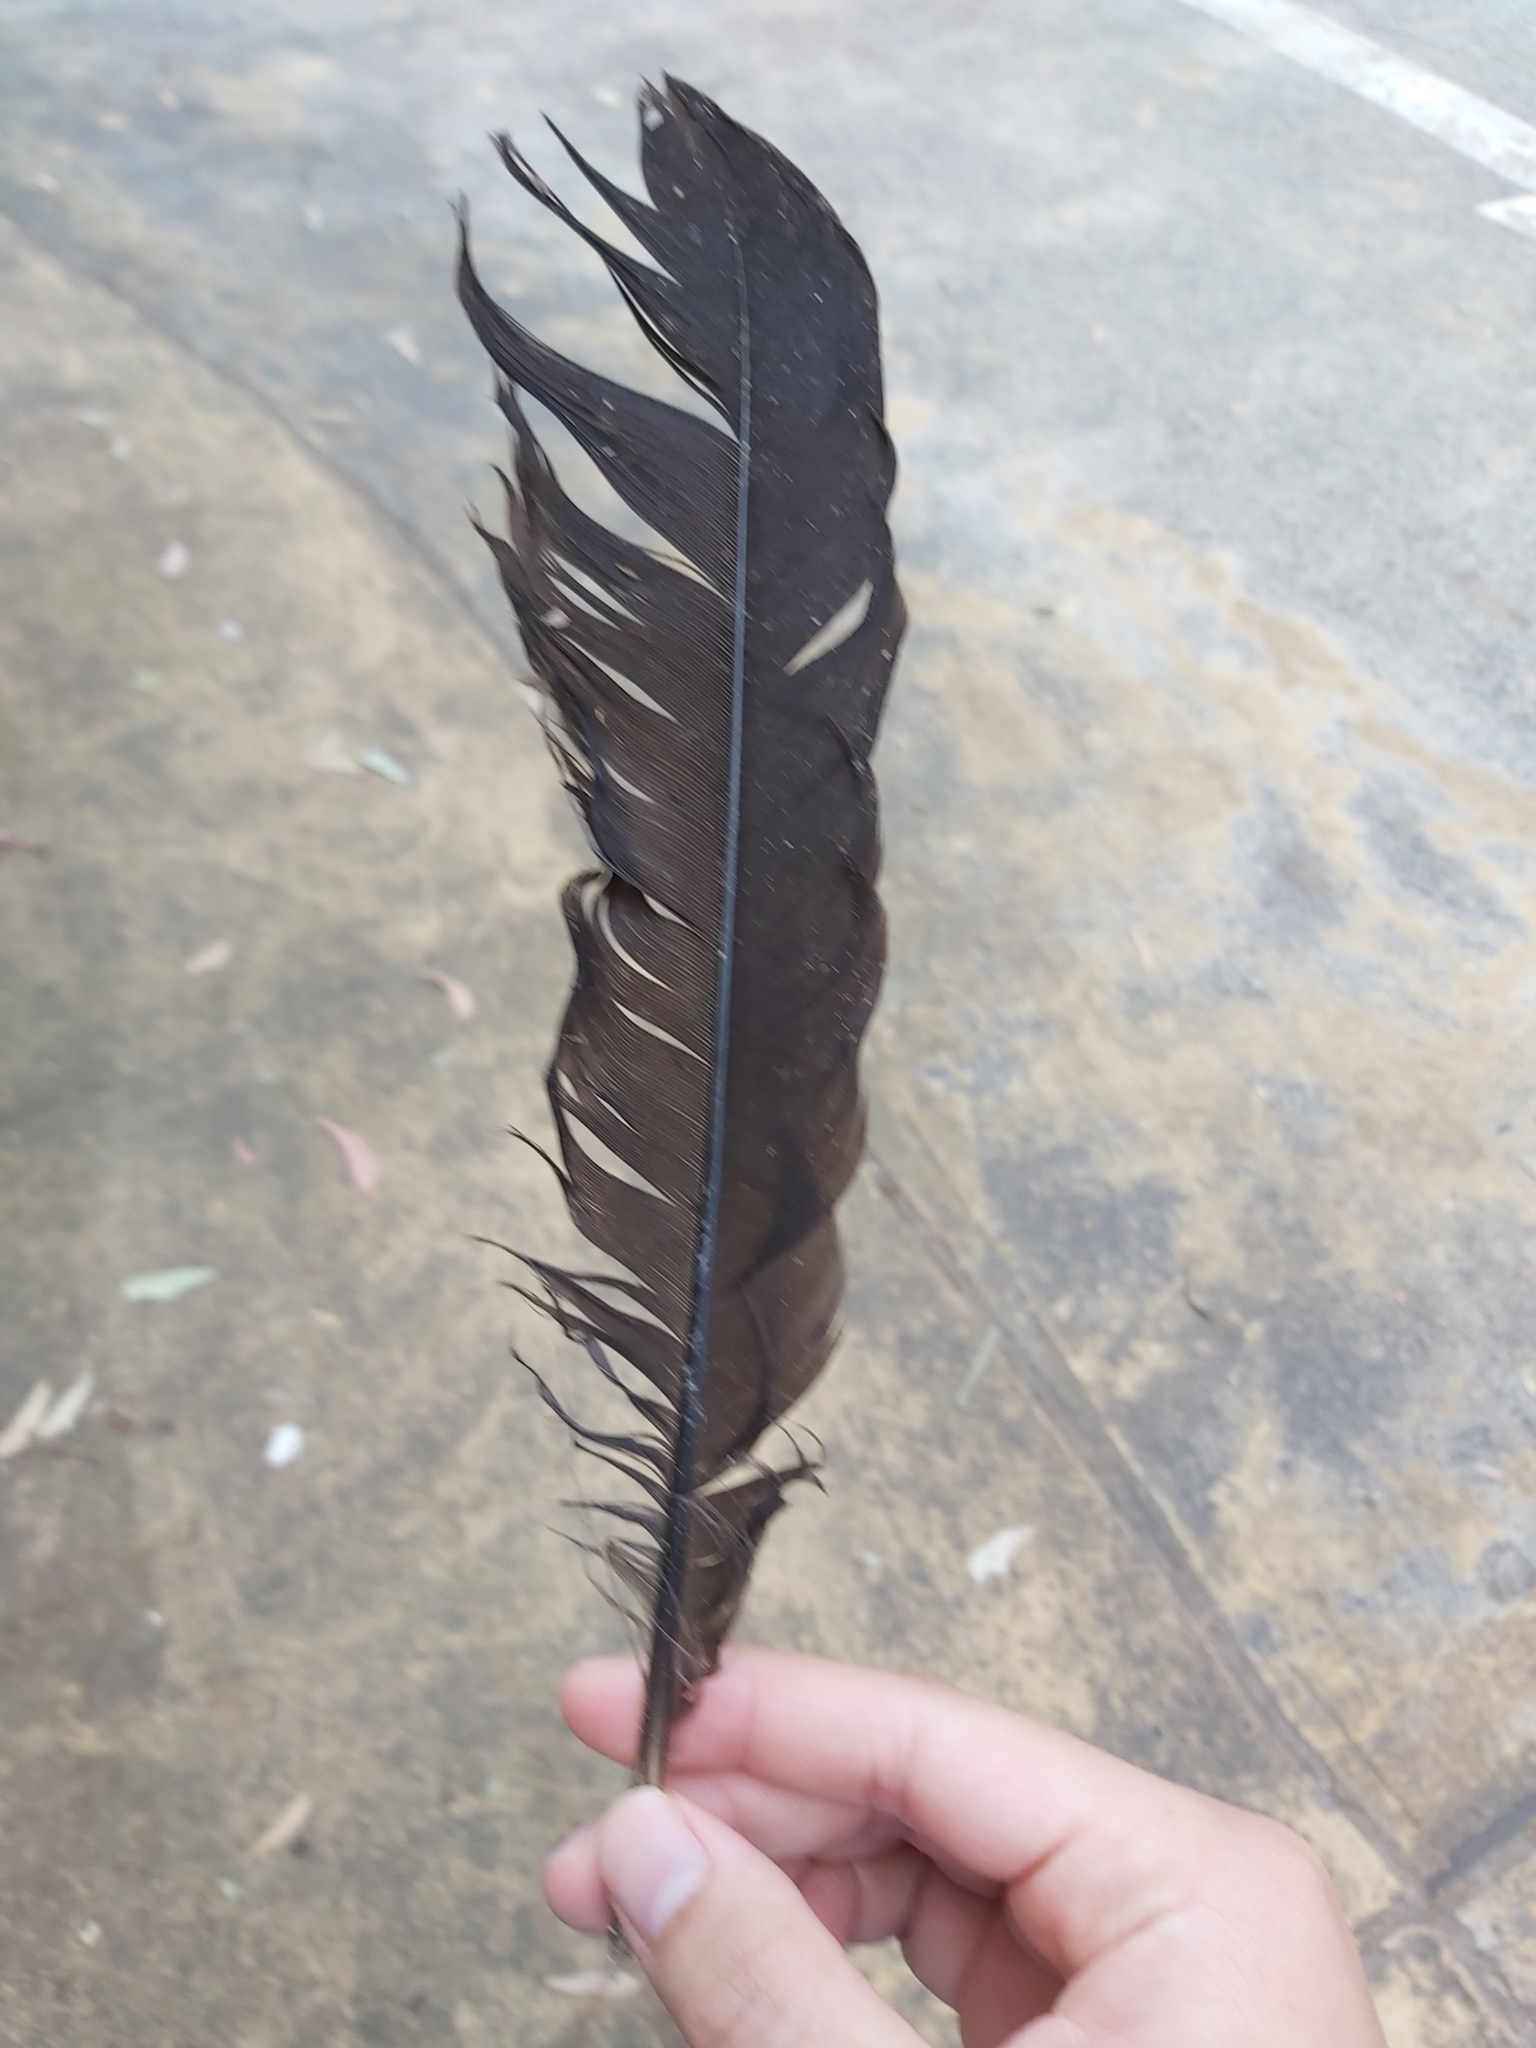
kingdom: Animalia
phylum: Chordata
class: Aves
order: Galliformes
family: Megapodiidae
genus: Alectura
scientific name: Alectura lathami
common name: Australian brushturkey
